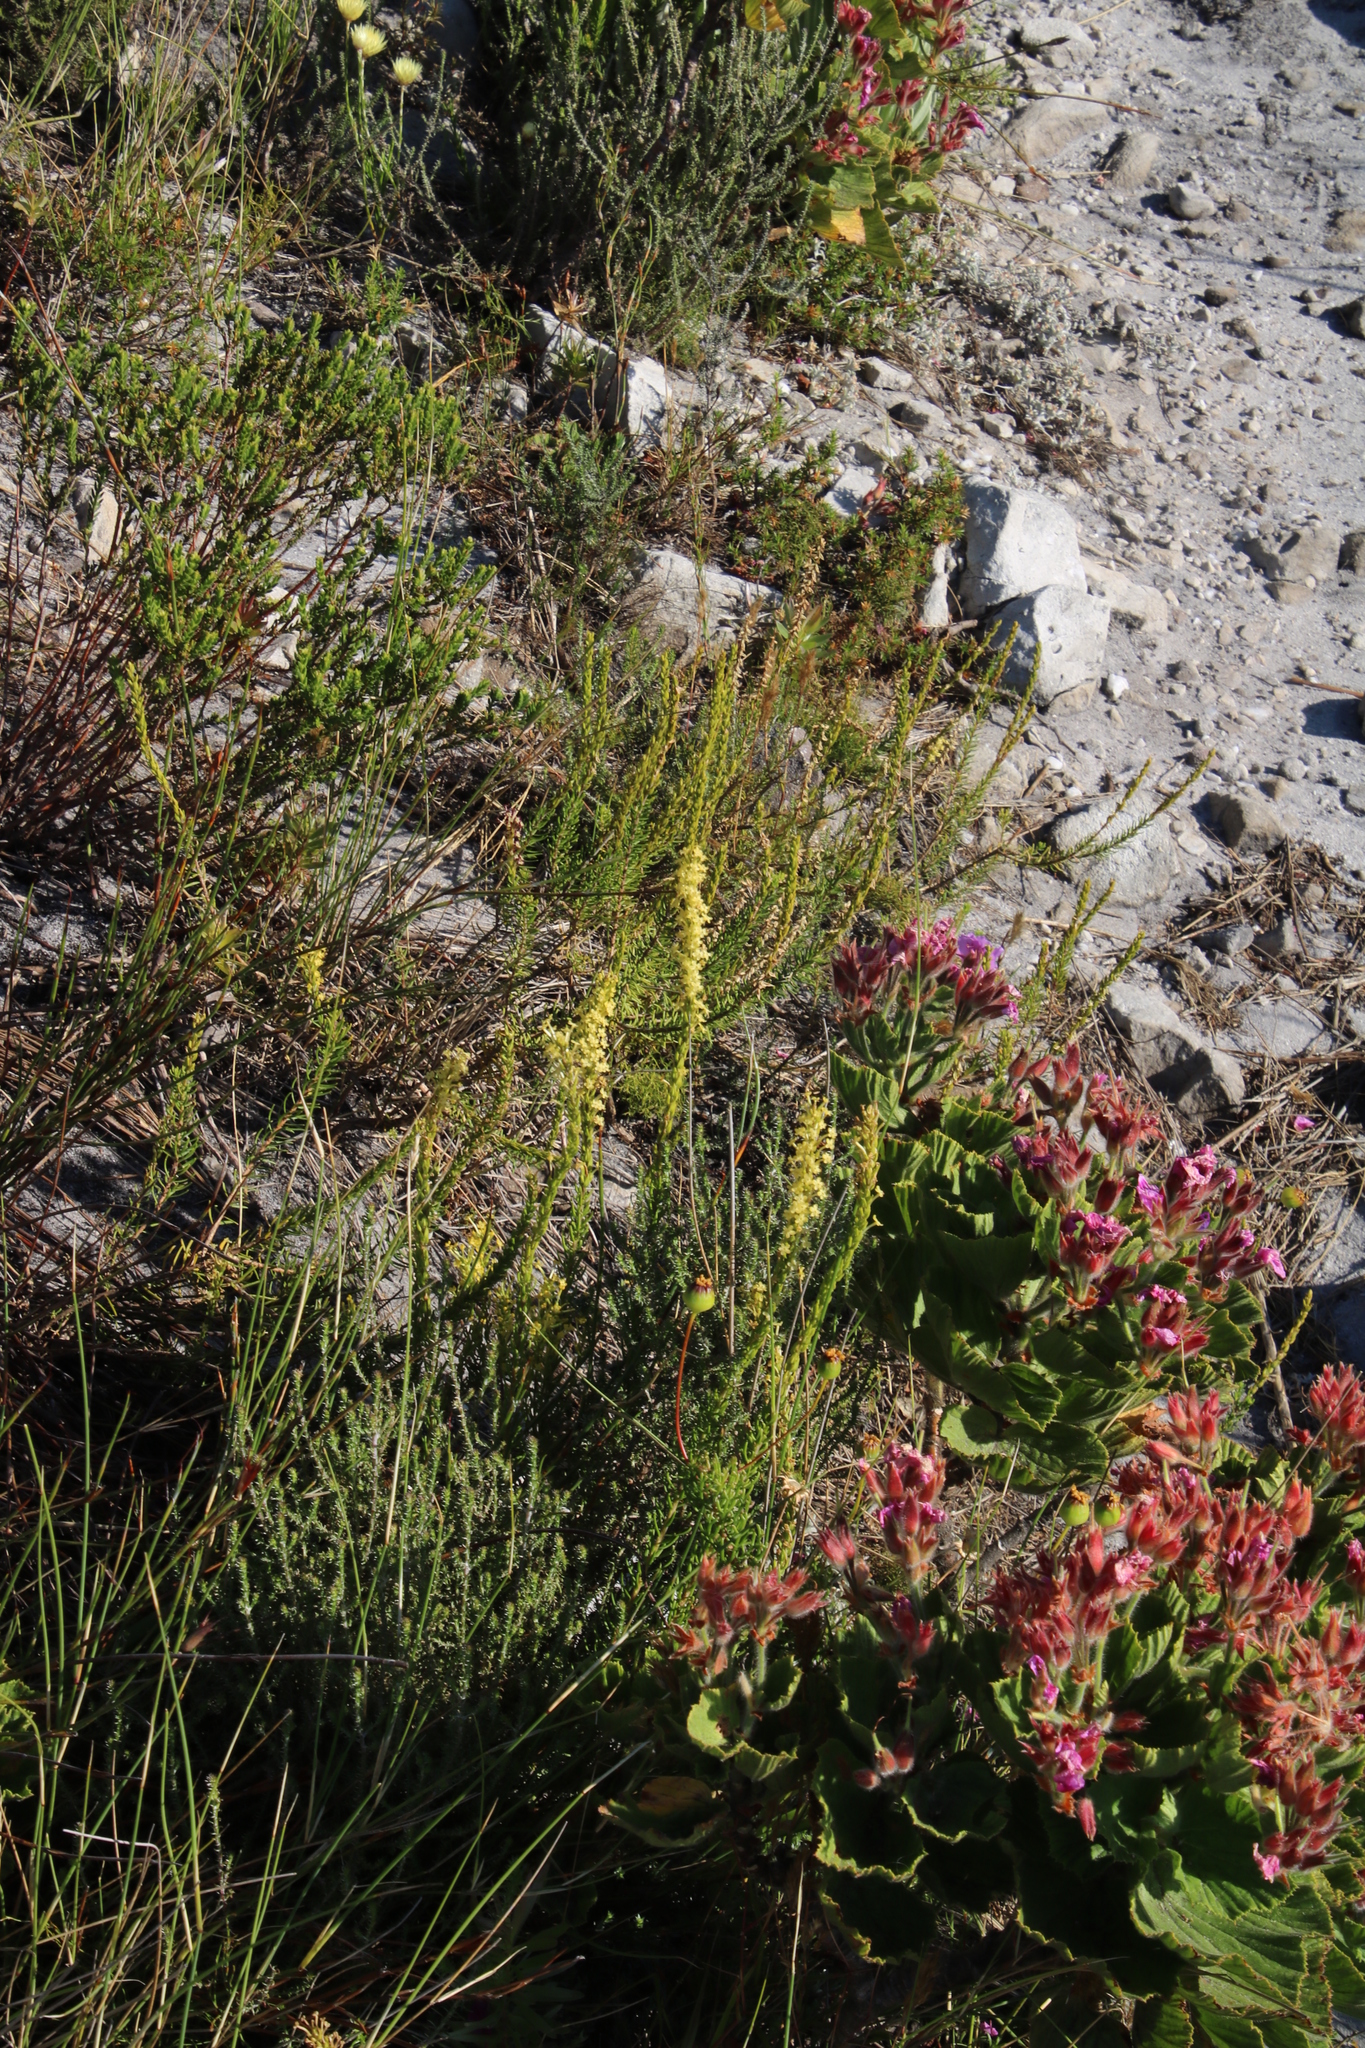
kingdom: Plantae
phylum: Tracheophyta
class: Magnoliopsida
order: Lamiales
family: Scrophulariaceae
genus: Microdon
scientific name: Microdon dubius
